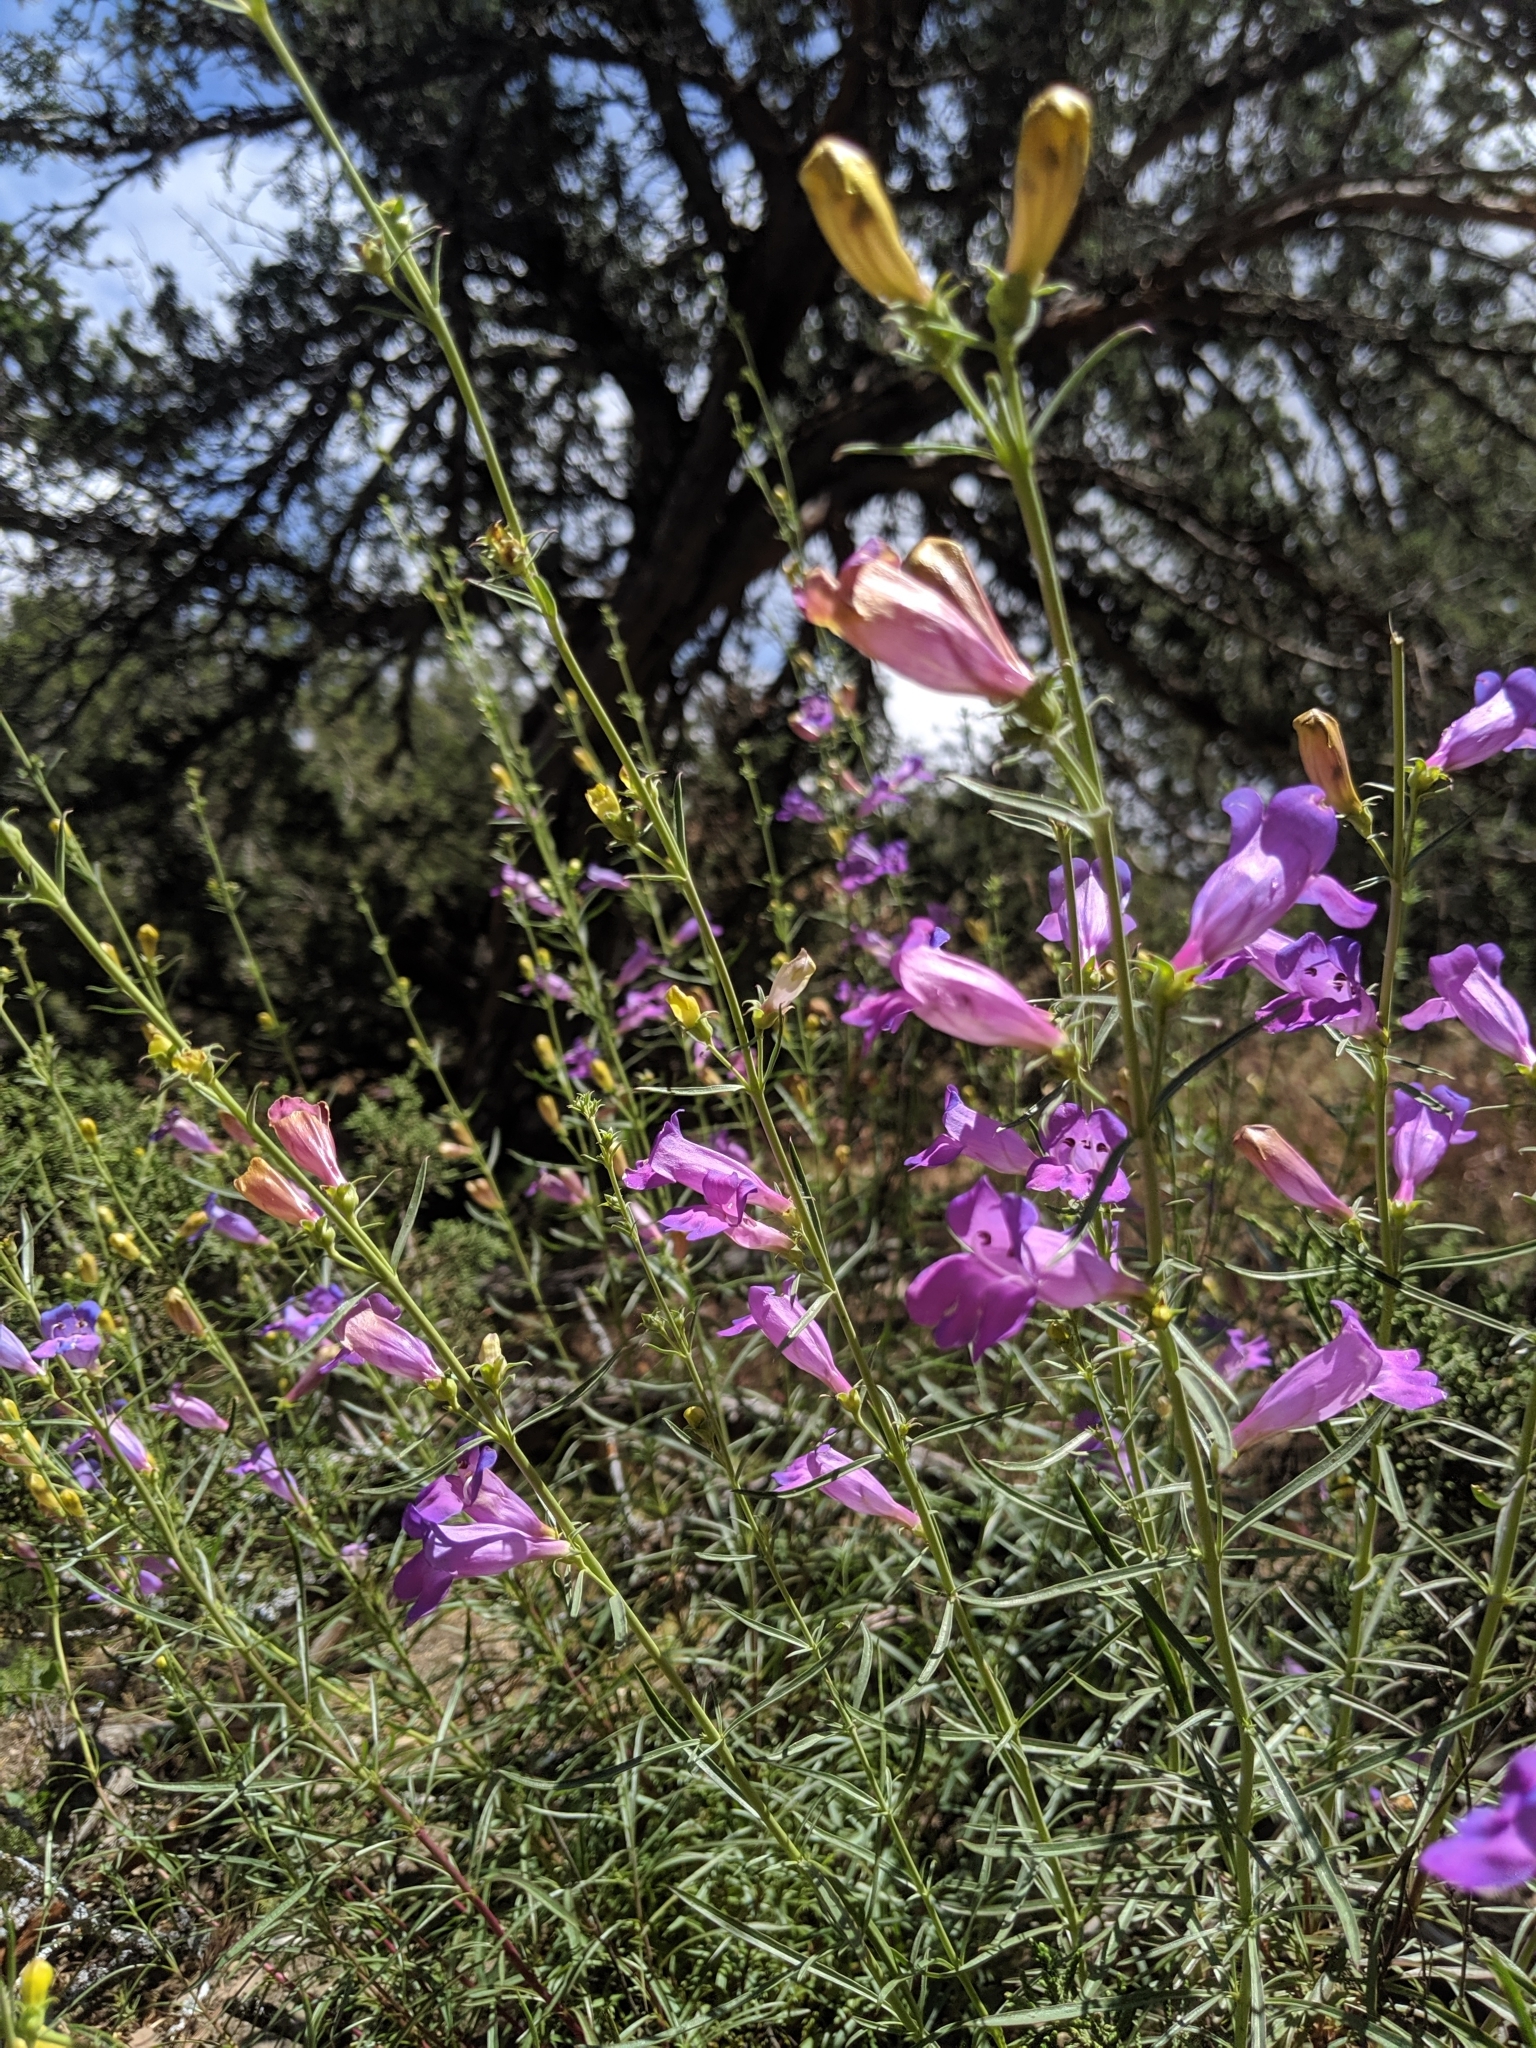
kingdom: Plantae
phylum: Tracheophyta
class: Magnoliopsida
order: Lamiales
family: Plantaginaceae
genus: Penstemon
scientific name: Penstemon heterophyllus
